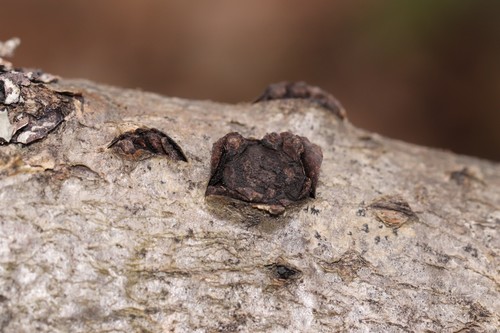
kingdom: Fungi
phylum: Ascomycota
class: Sordariomycetes
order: Xylariales
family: Graphostromataceae
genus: Biscogniauxia
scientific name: Biscogniauxia repanda
